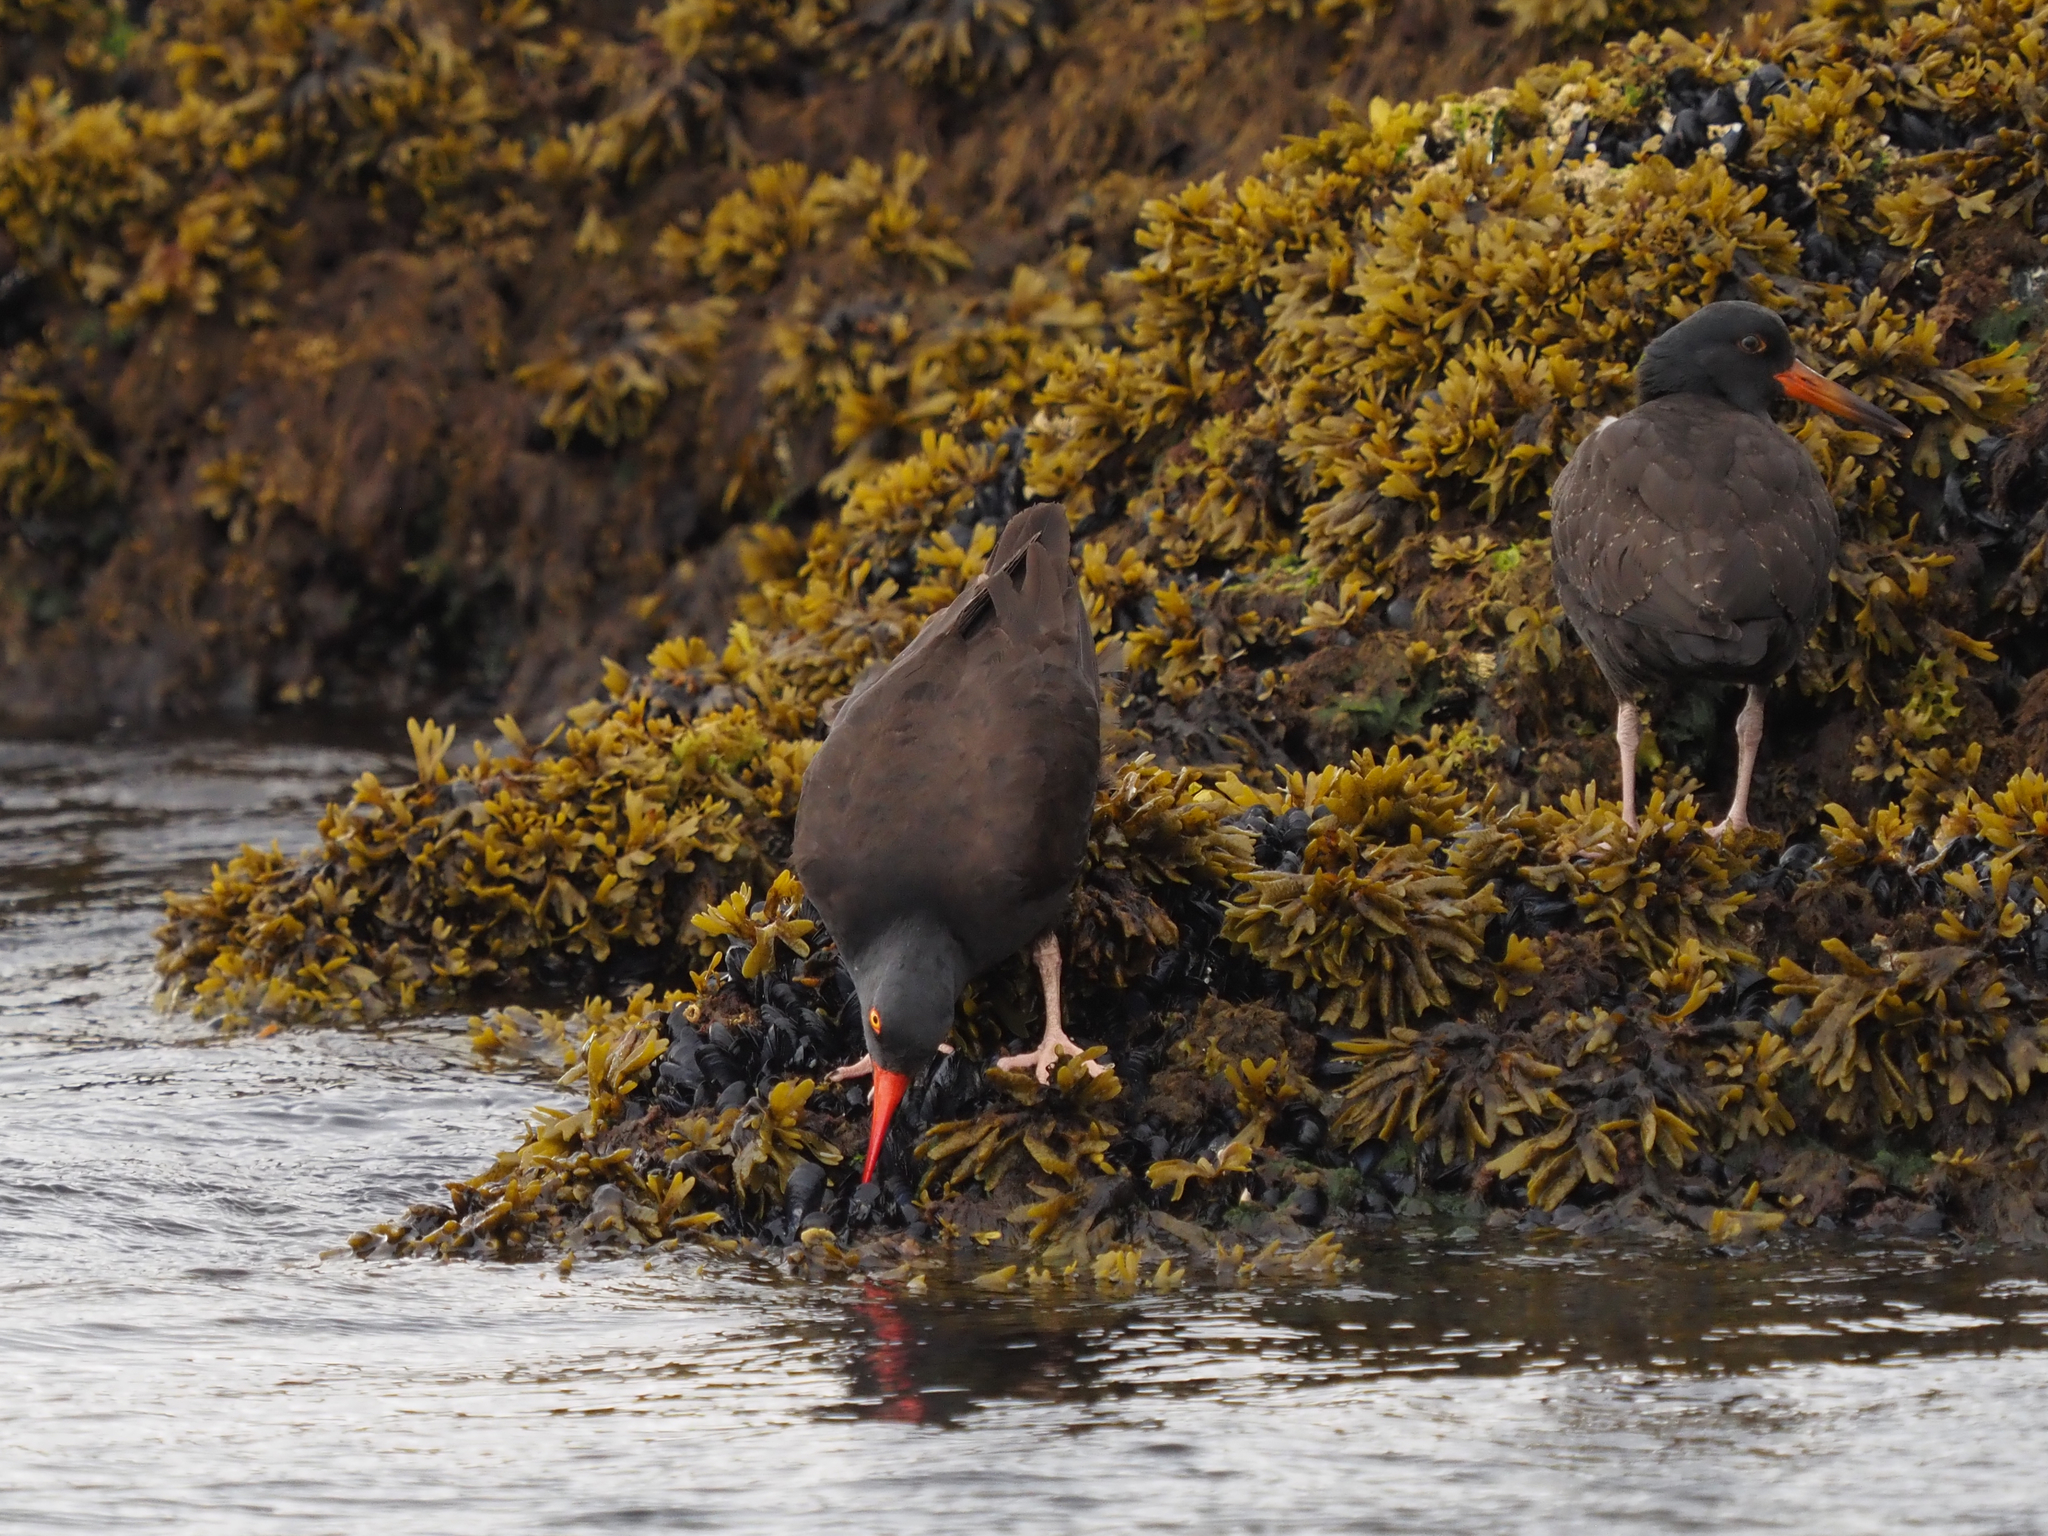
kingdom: Animalia
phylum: Chordata
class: Aves
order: Charadriiformes
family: Haematopodidae
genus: Haematopus
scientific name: Haematopus bachmani
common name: Black oystercatcher
